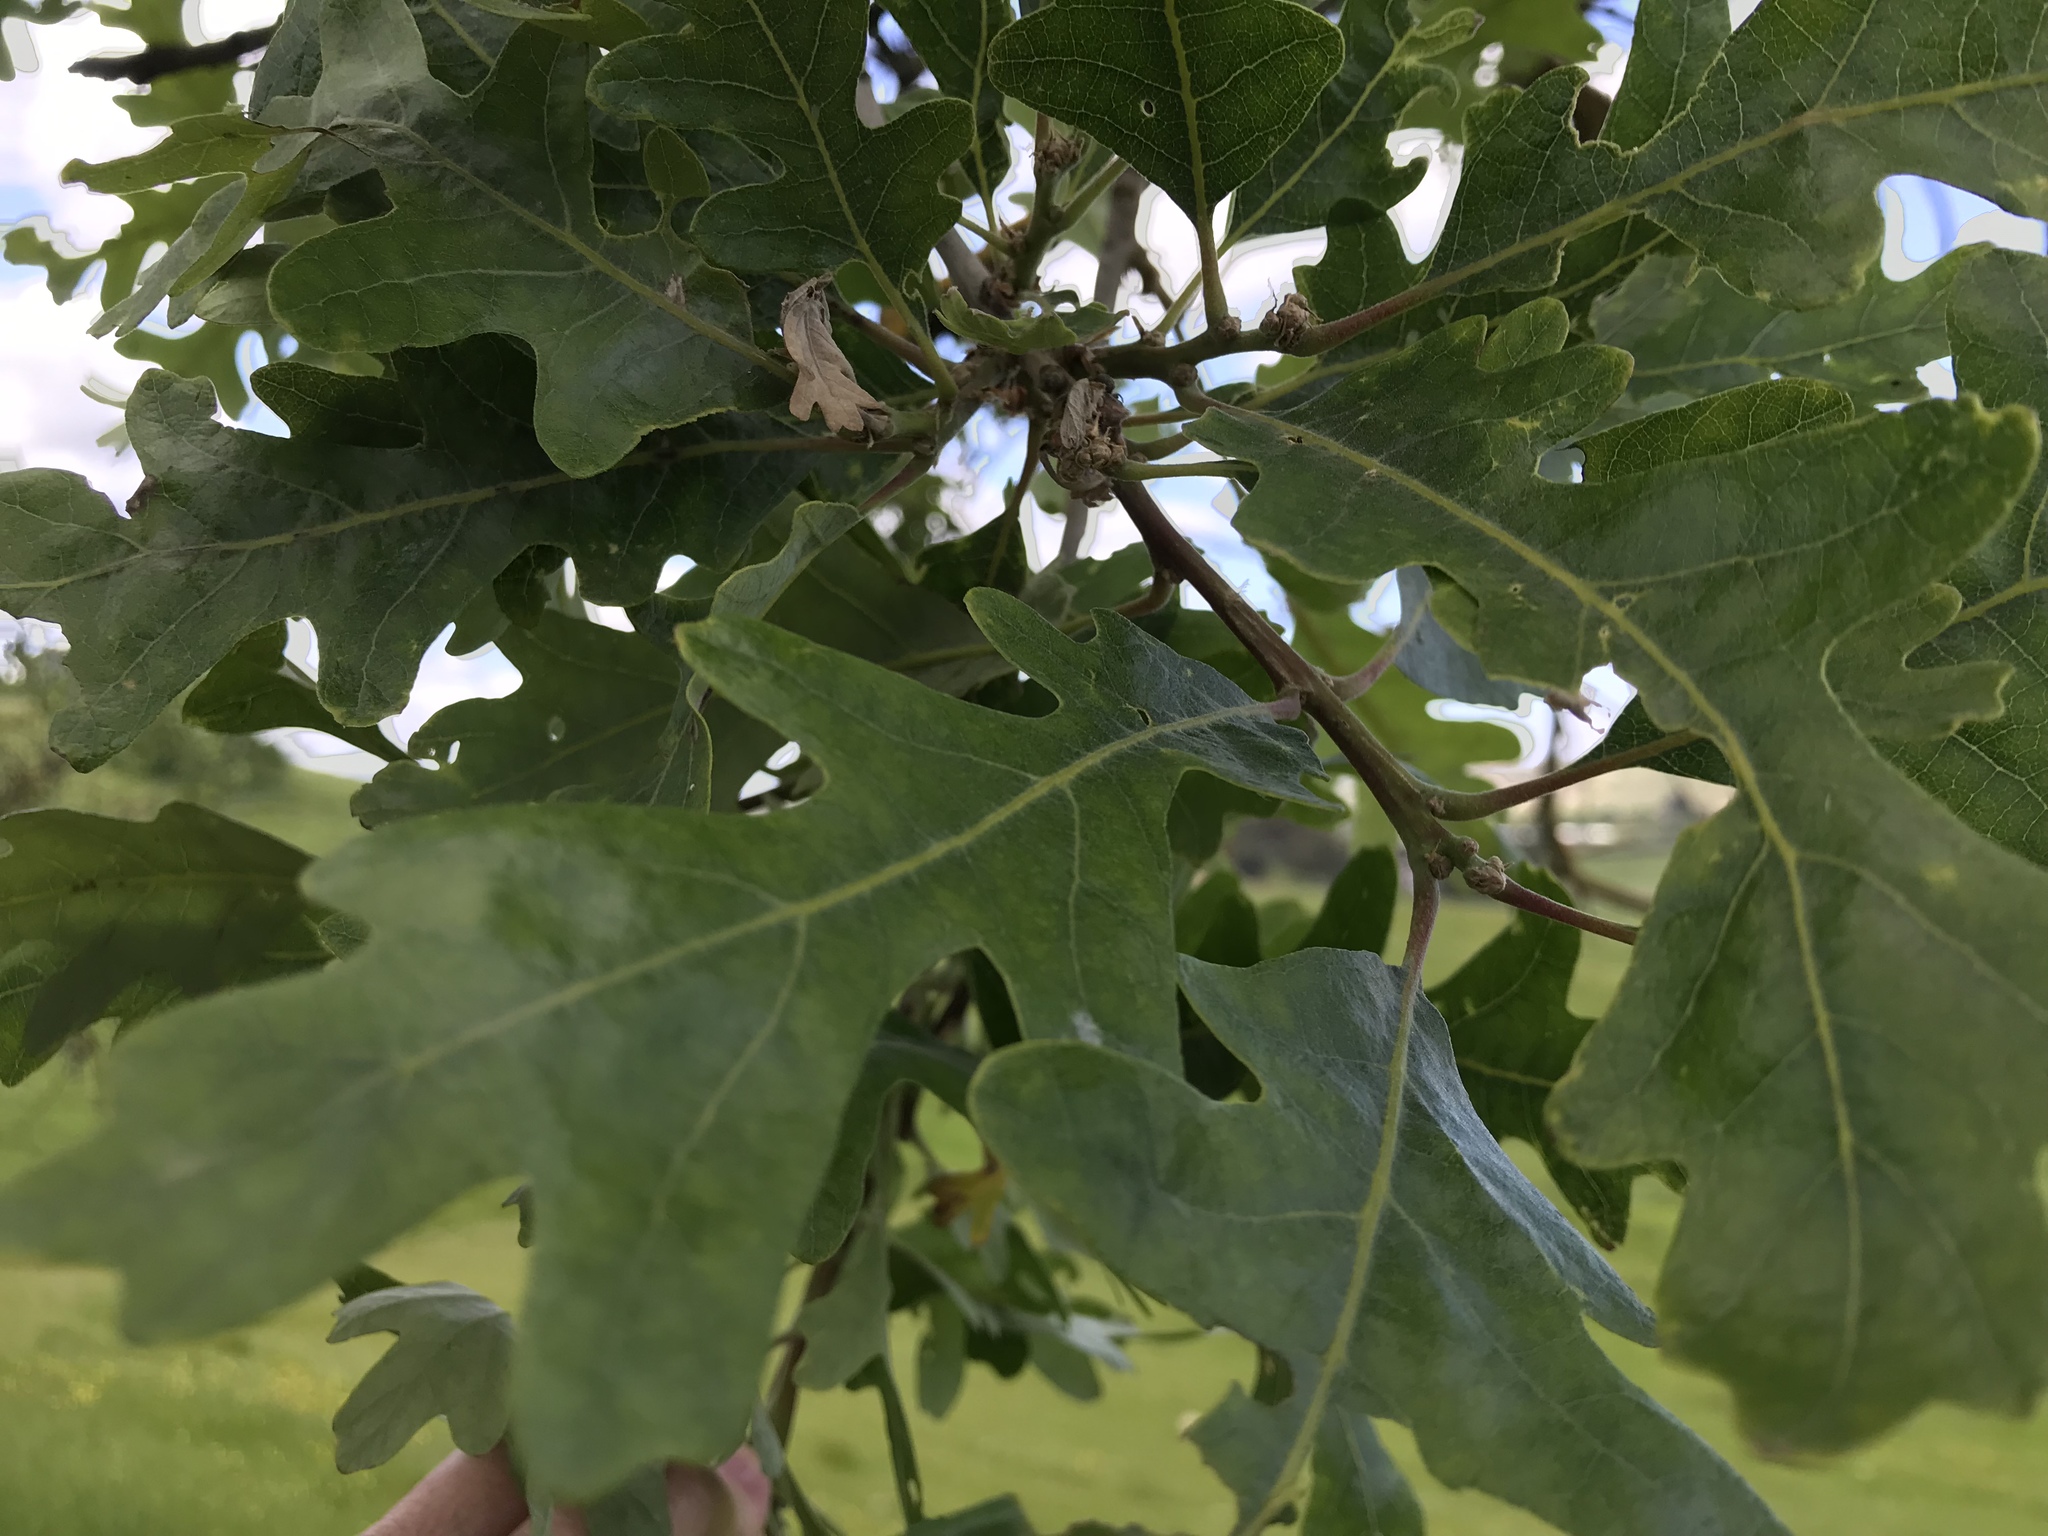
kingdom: Plantae
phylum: Tracheophyta
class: Magnoliopsida
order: Fagales
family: Fagaceae
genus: Quercus
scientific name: Quercus lobata
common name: Valley oak
